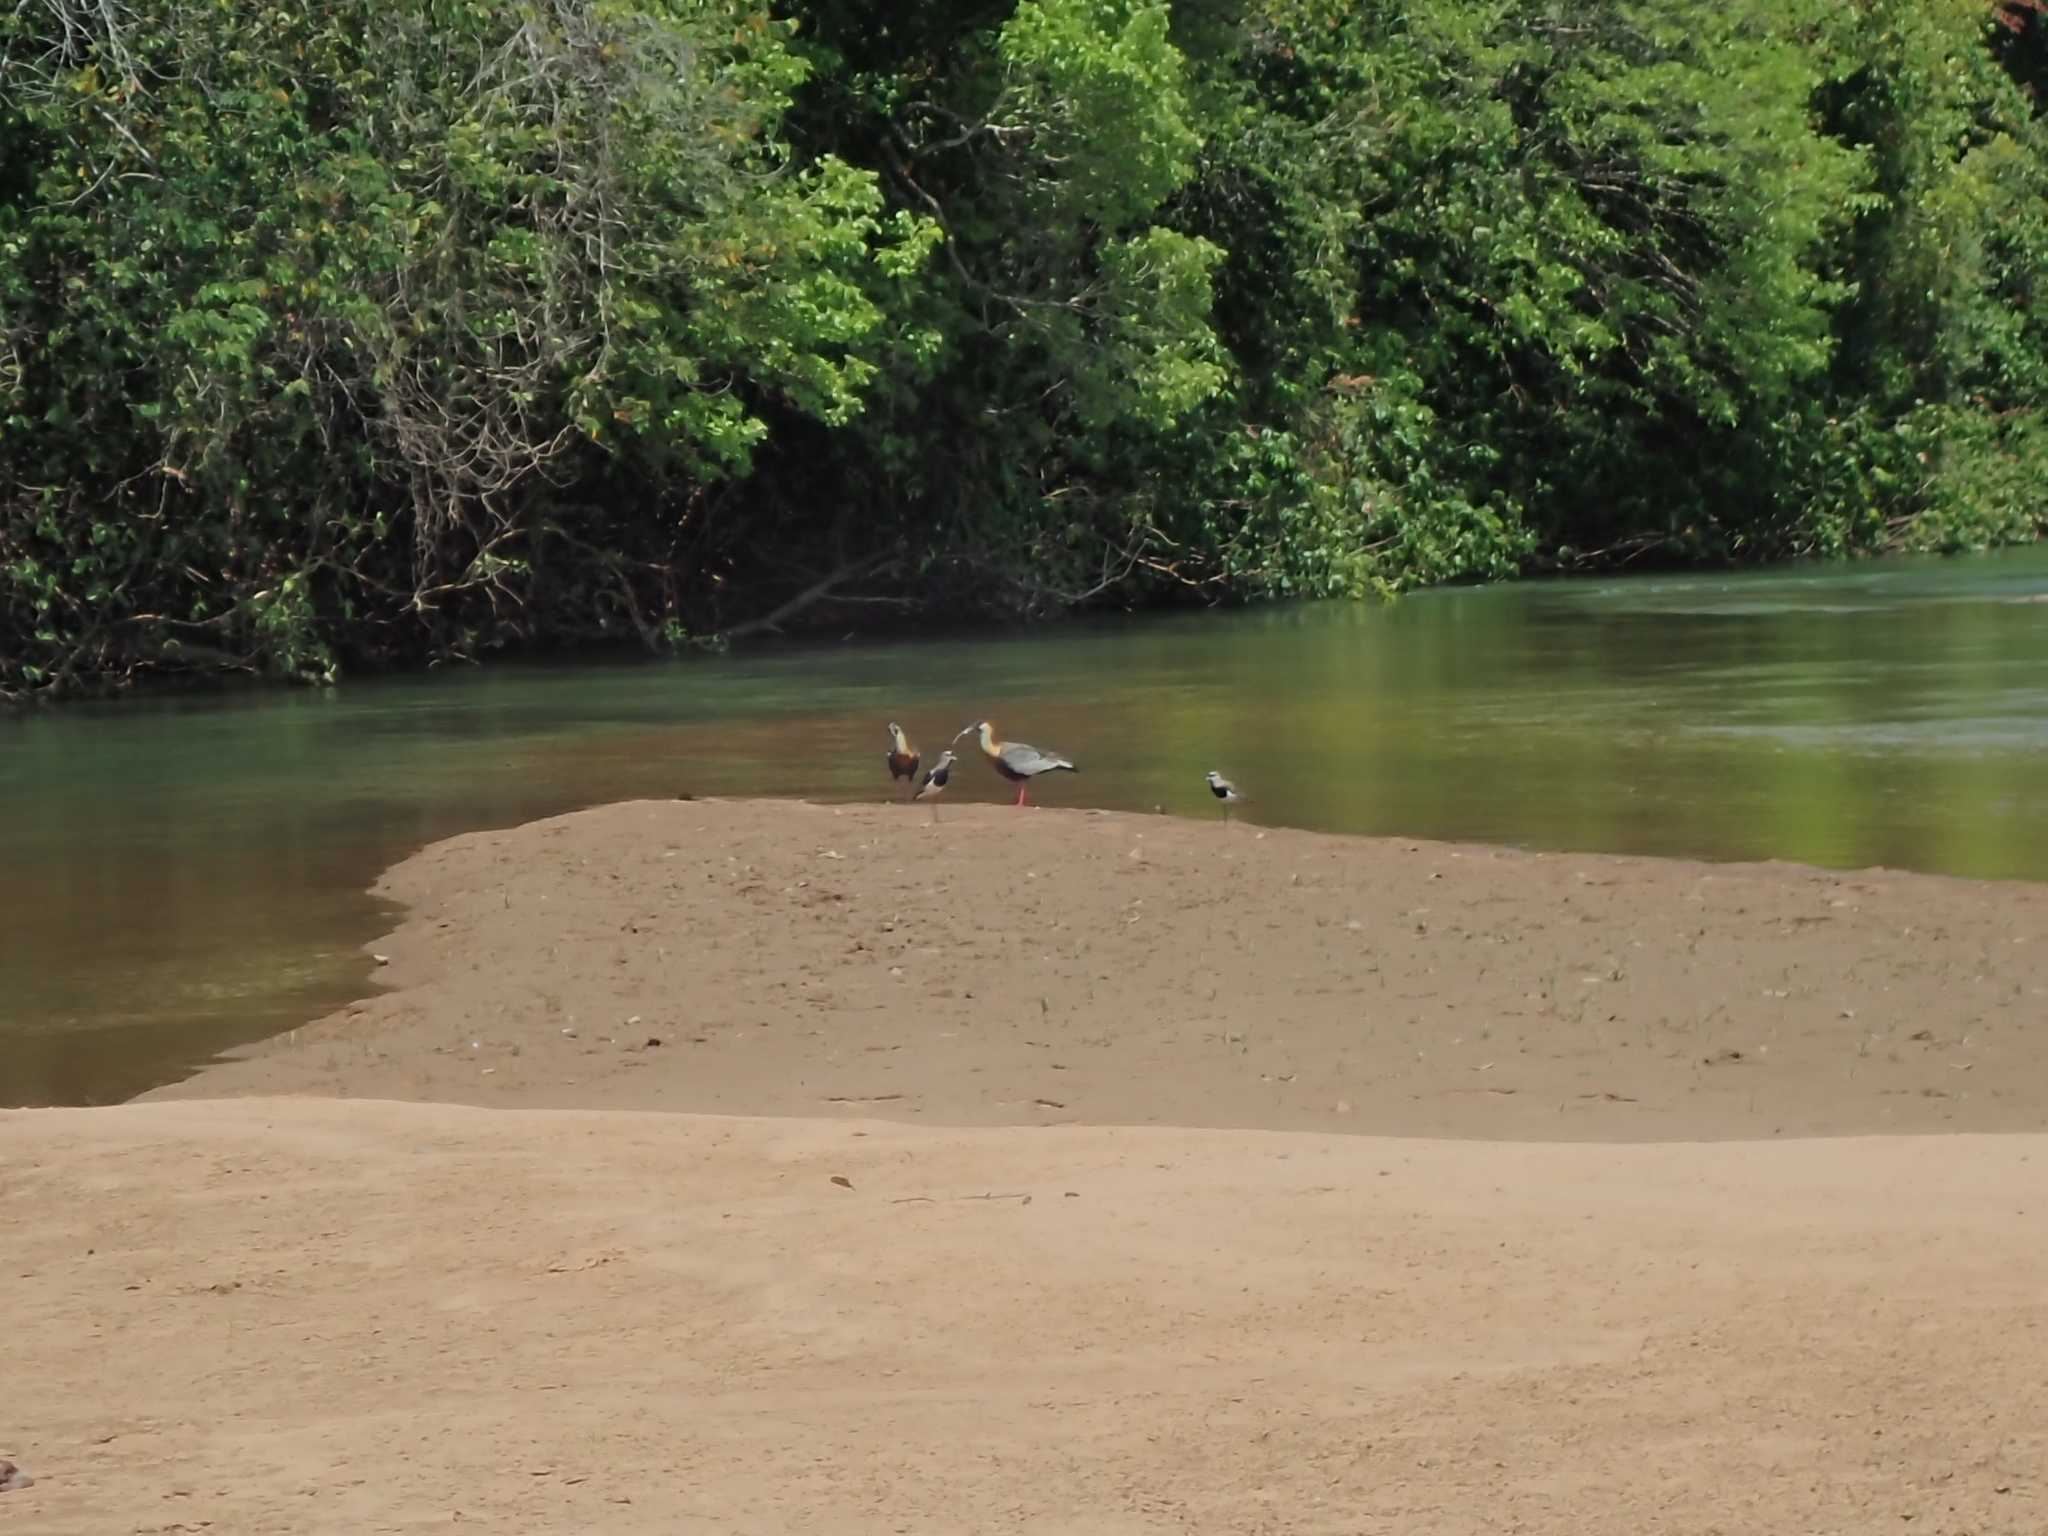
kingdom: Animalia
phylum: Chordata
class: Aves
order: Pelecaniformes
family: Threskiornithidae
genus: Theristicus
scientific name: Theristicus caudatus
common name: Buff-necked ibis
